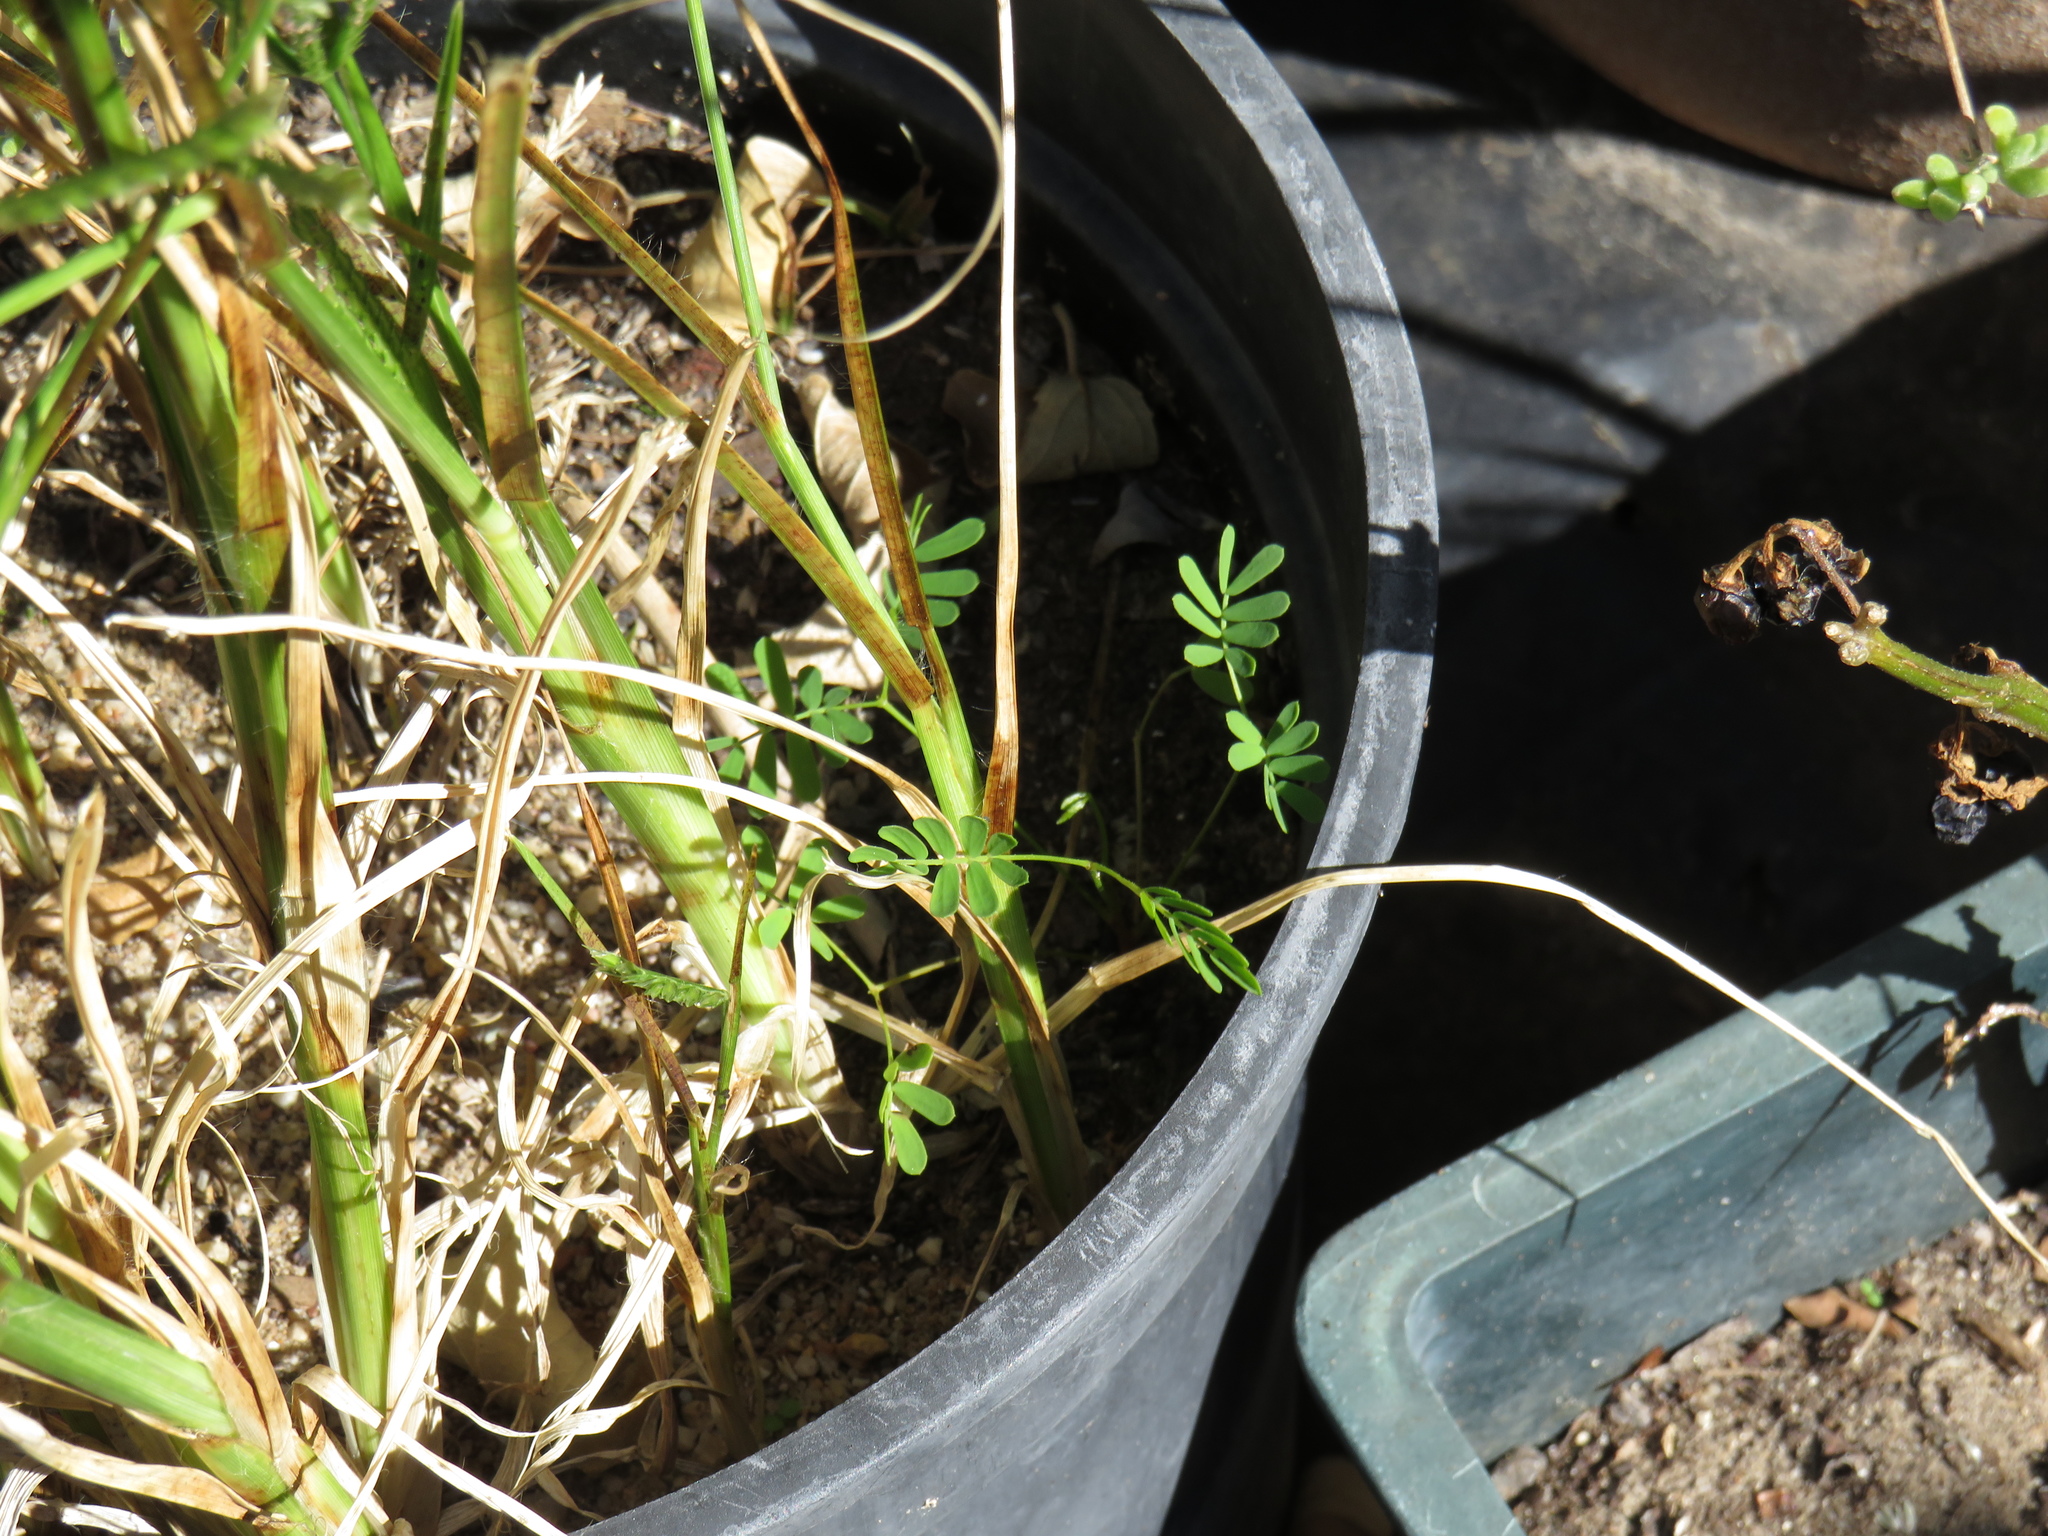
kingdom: Plantae
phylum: Tracheophyta
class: Magnoliopsida
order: Fabales
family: Fabaceae
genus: Acacia
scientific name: Acacia saligna
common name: Orange wattle
